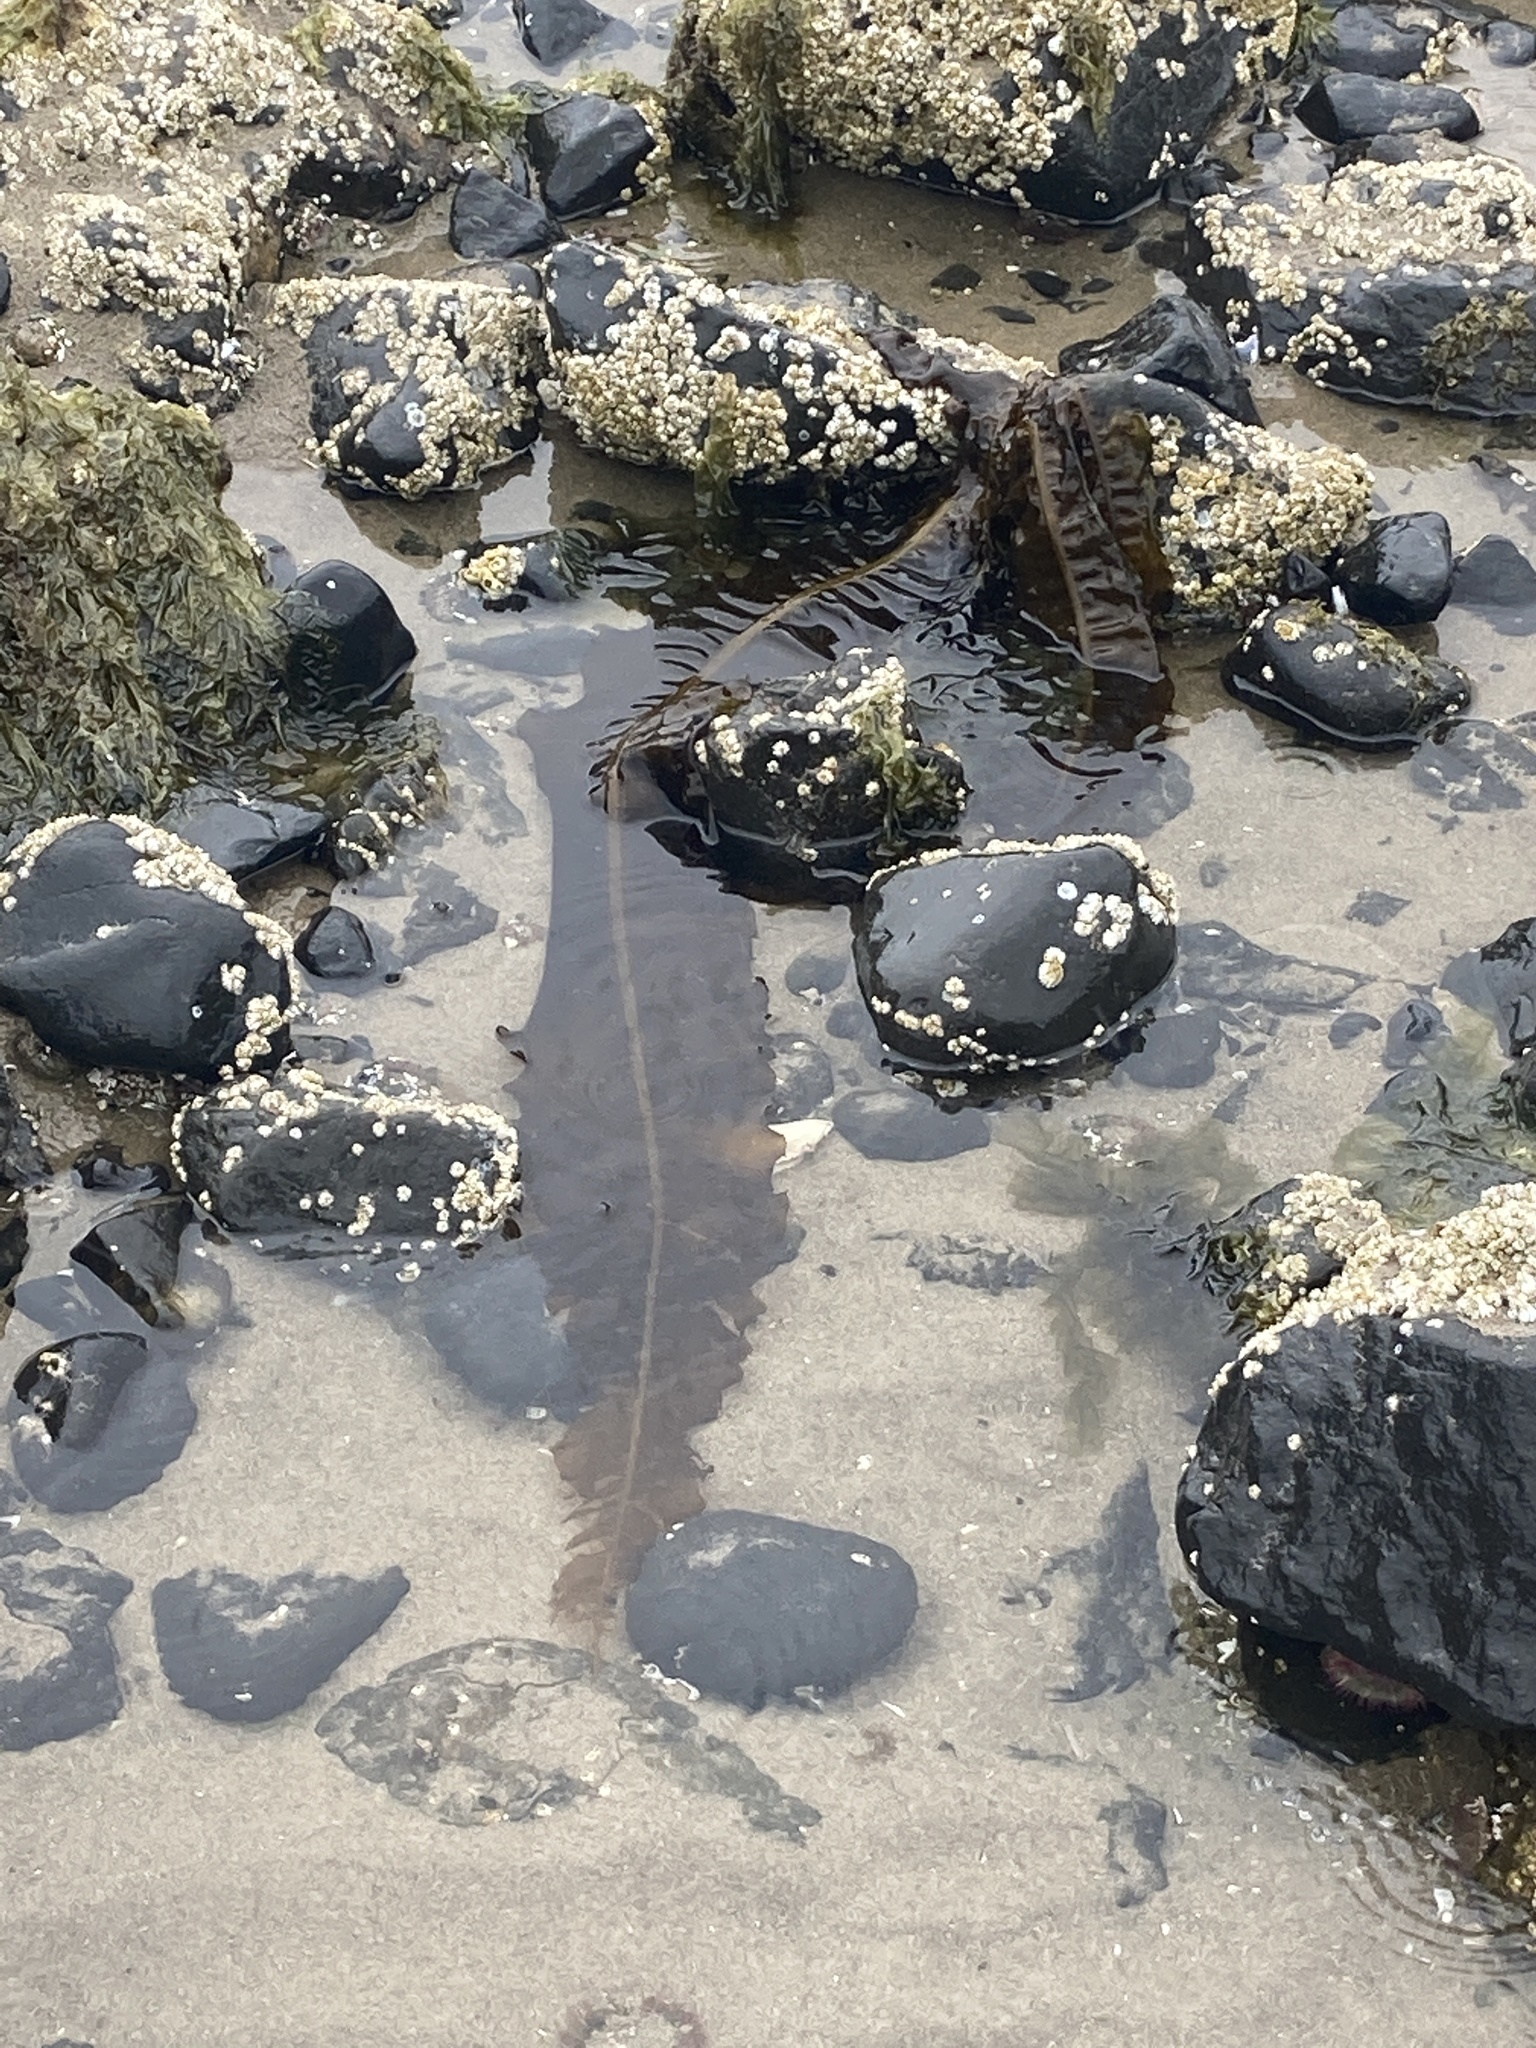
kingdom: Chromista
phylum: Ochrophyta
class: Phaeophyceae
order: Laminariales
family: Alariaceae
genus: Alaria
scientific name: Alaria marginata
